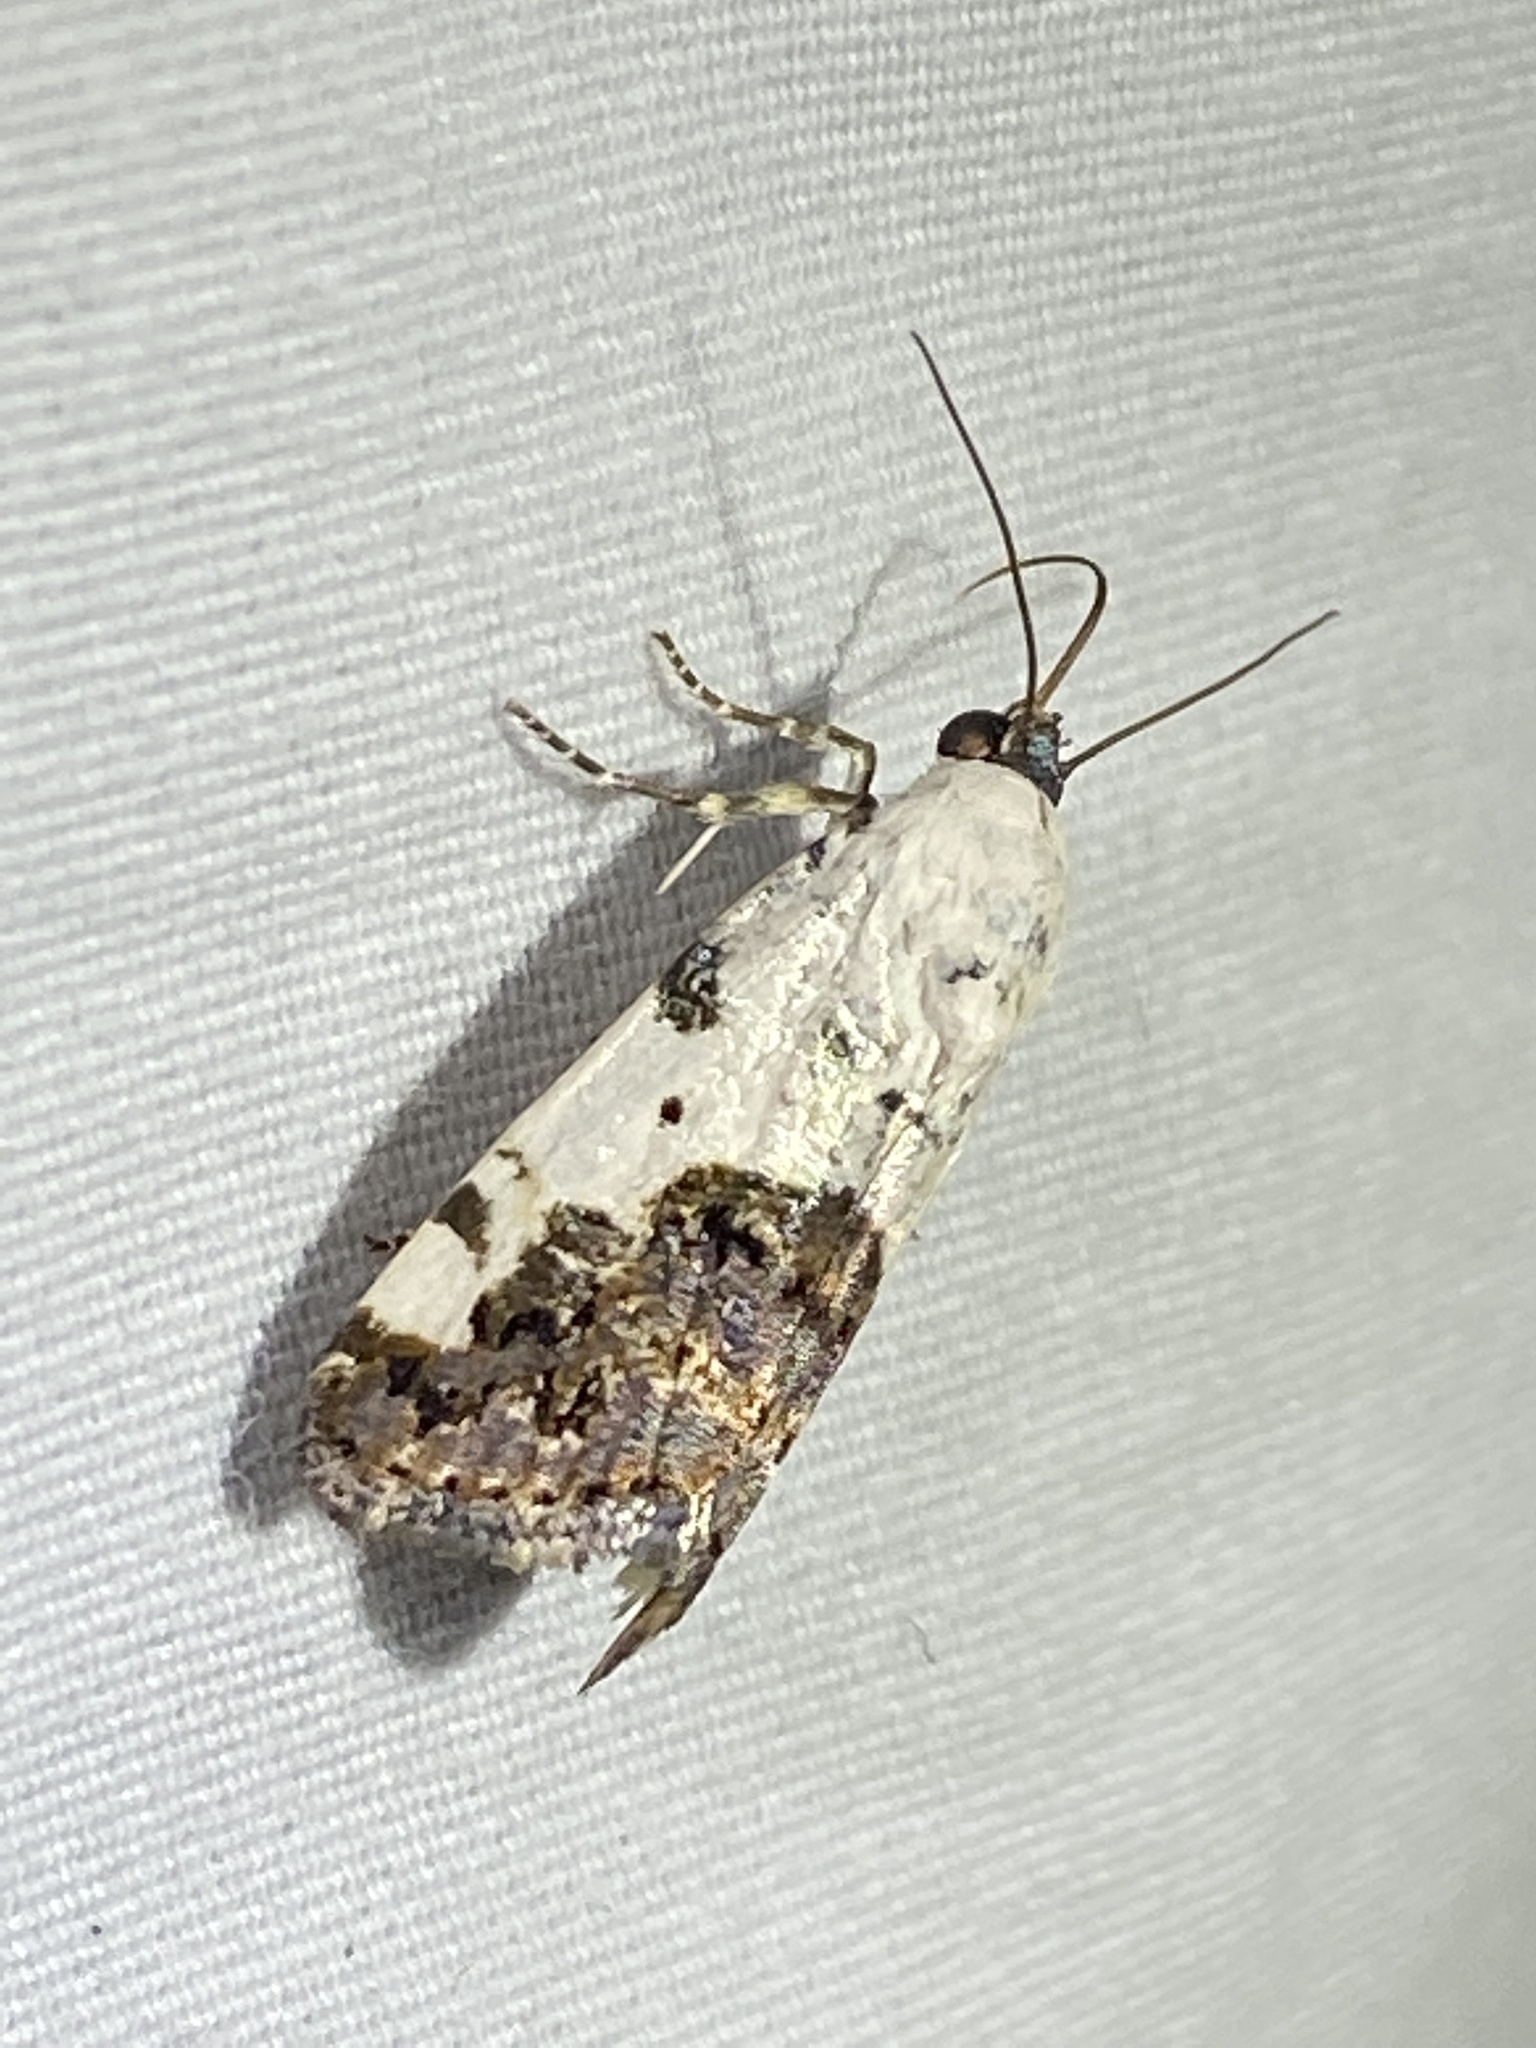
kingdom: Animalia
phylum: Arthropoda
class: Insecta
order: Lepidoptera
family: Noctuidae
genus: Acontia
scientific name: Acontia aprica
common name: Nun
